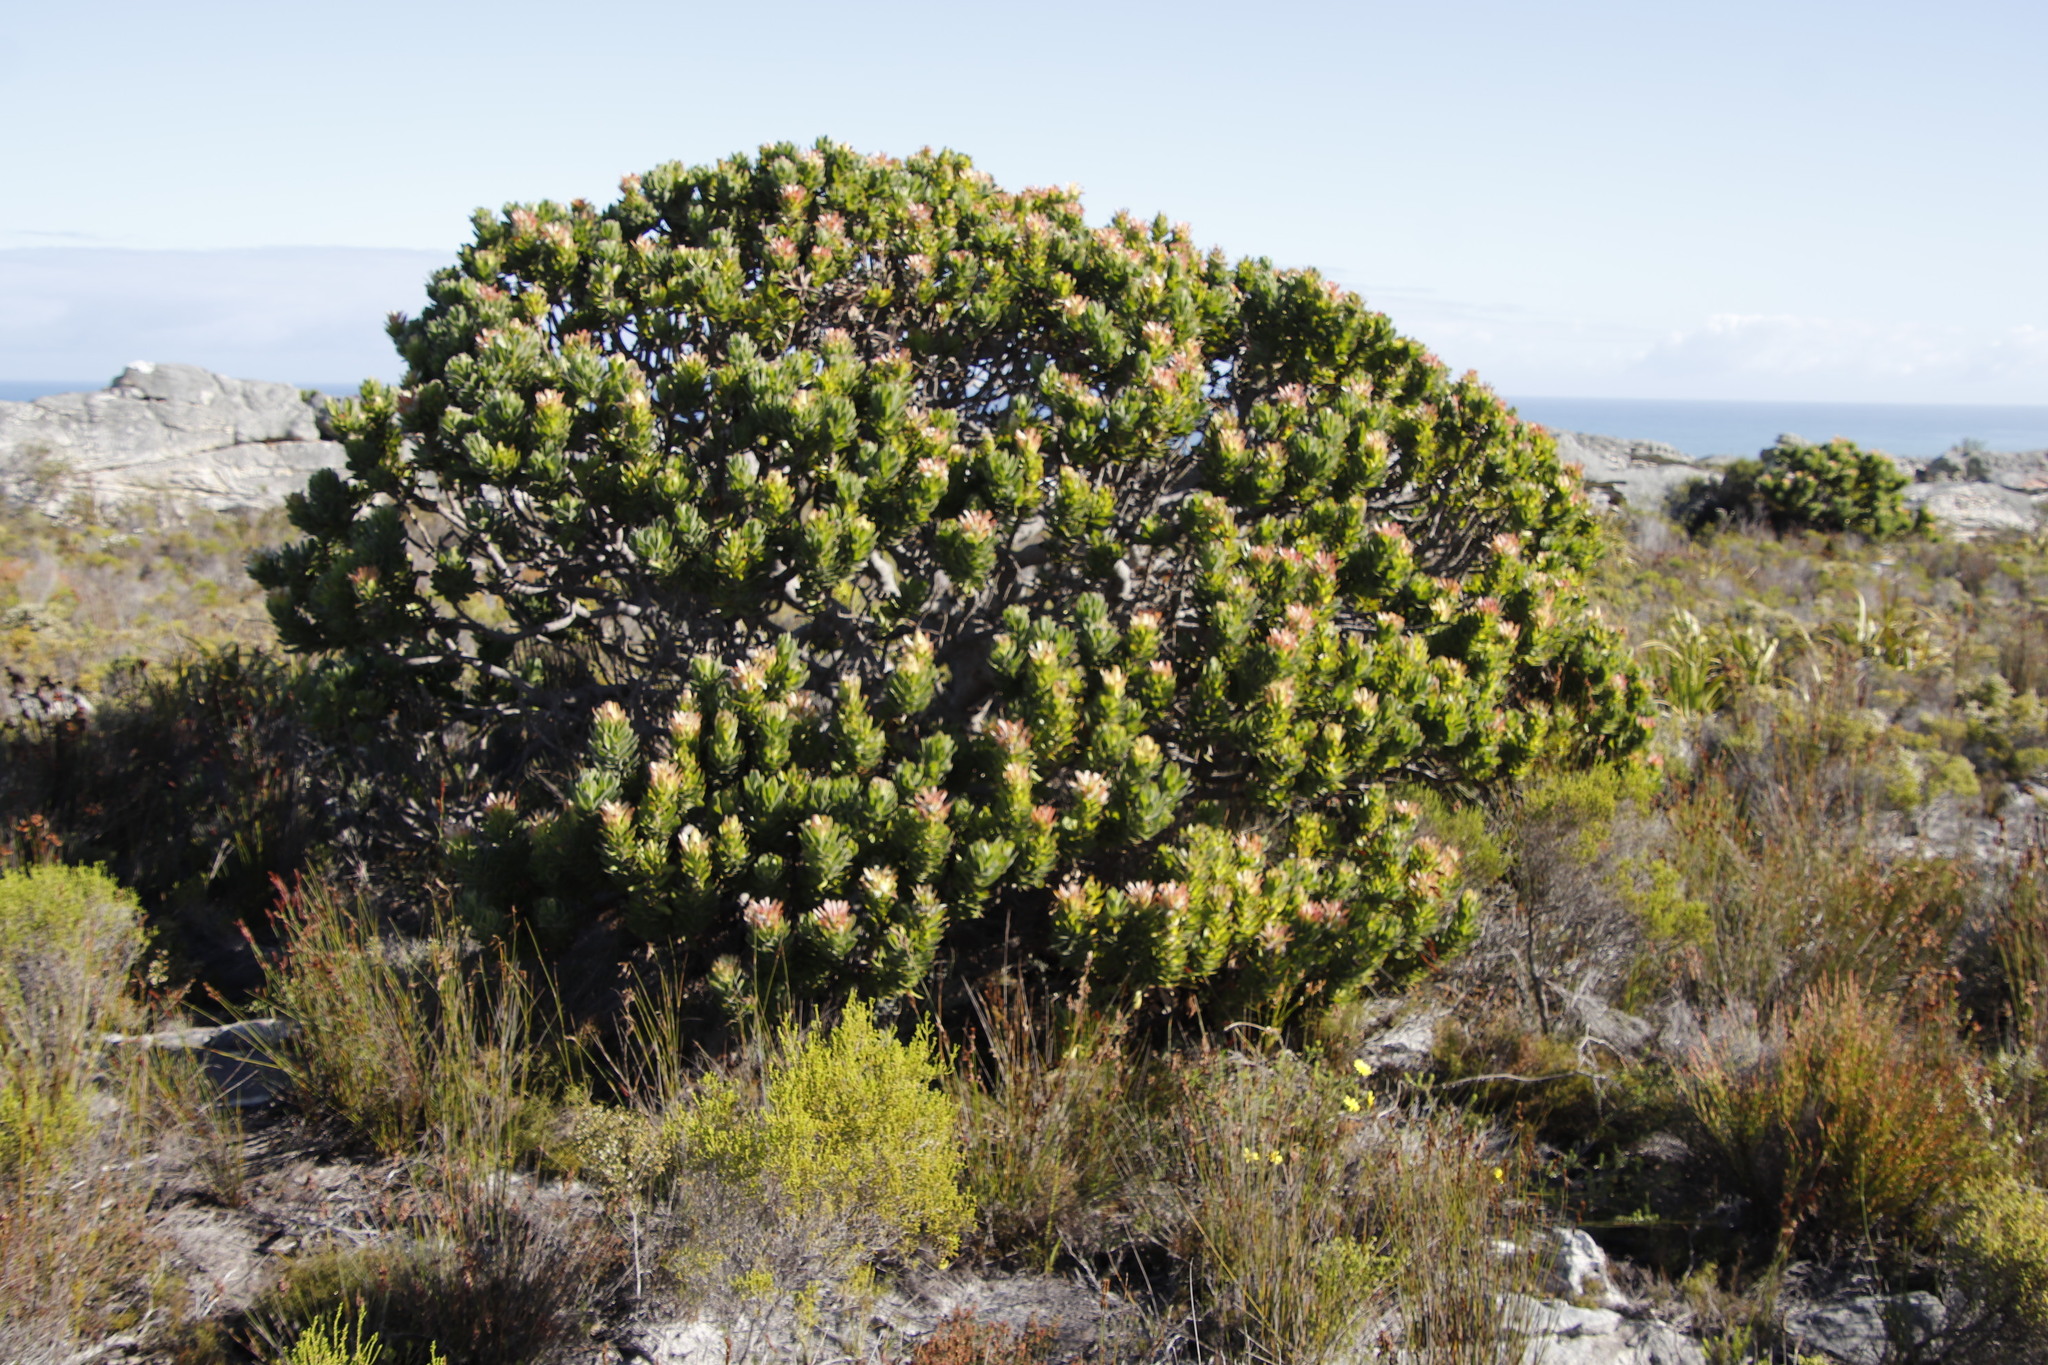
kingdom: Plantae
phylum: Tracheophyta
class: Magnoliopsida
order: Proteales
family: Proteaceae
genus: Mimetes
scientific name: Mimetes fimbriifolius
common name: Fringed bottlebrush
